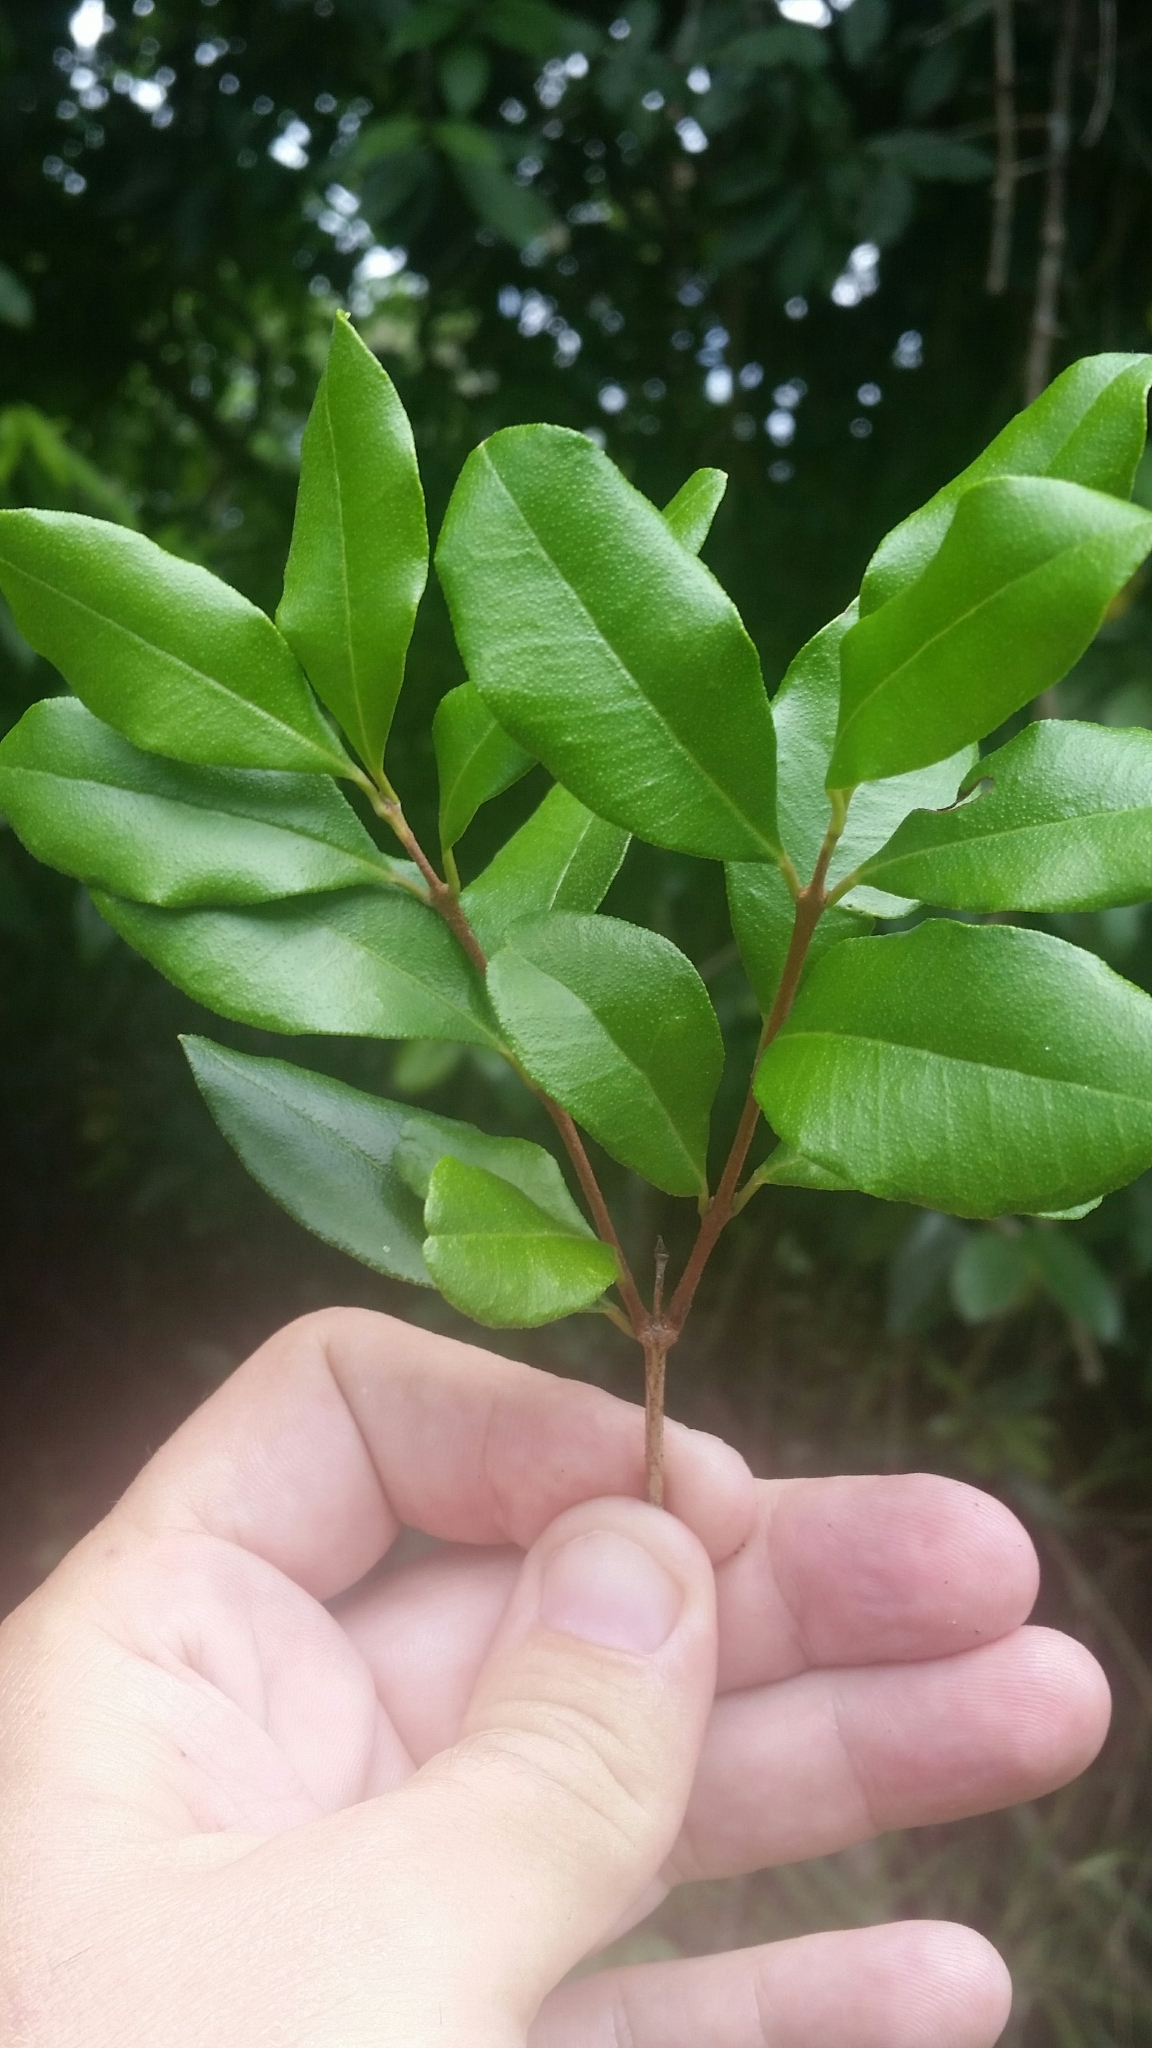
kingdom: Plantae
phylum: Tracheophyta
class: Magnoliopsida
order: Myrtales
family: Myrtaceae
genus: Myrcianthes
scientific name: Myrcianthes fragrans
